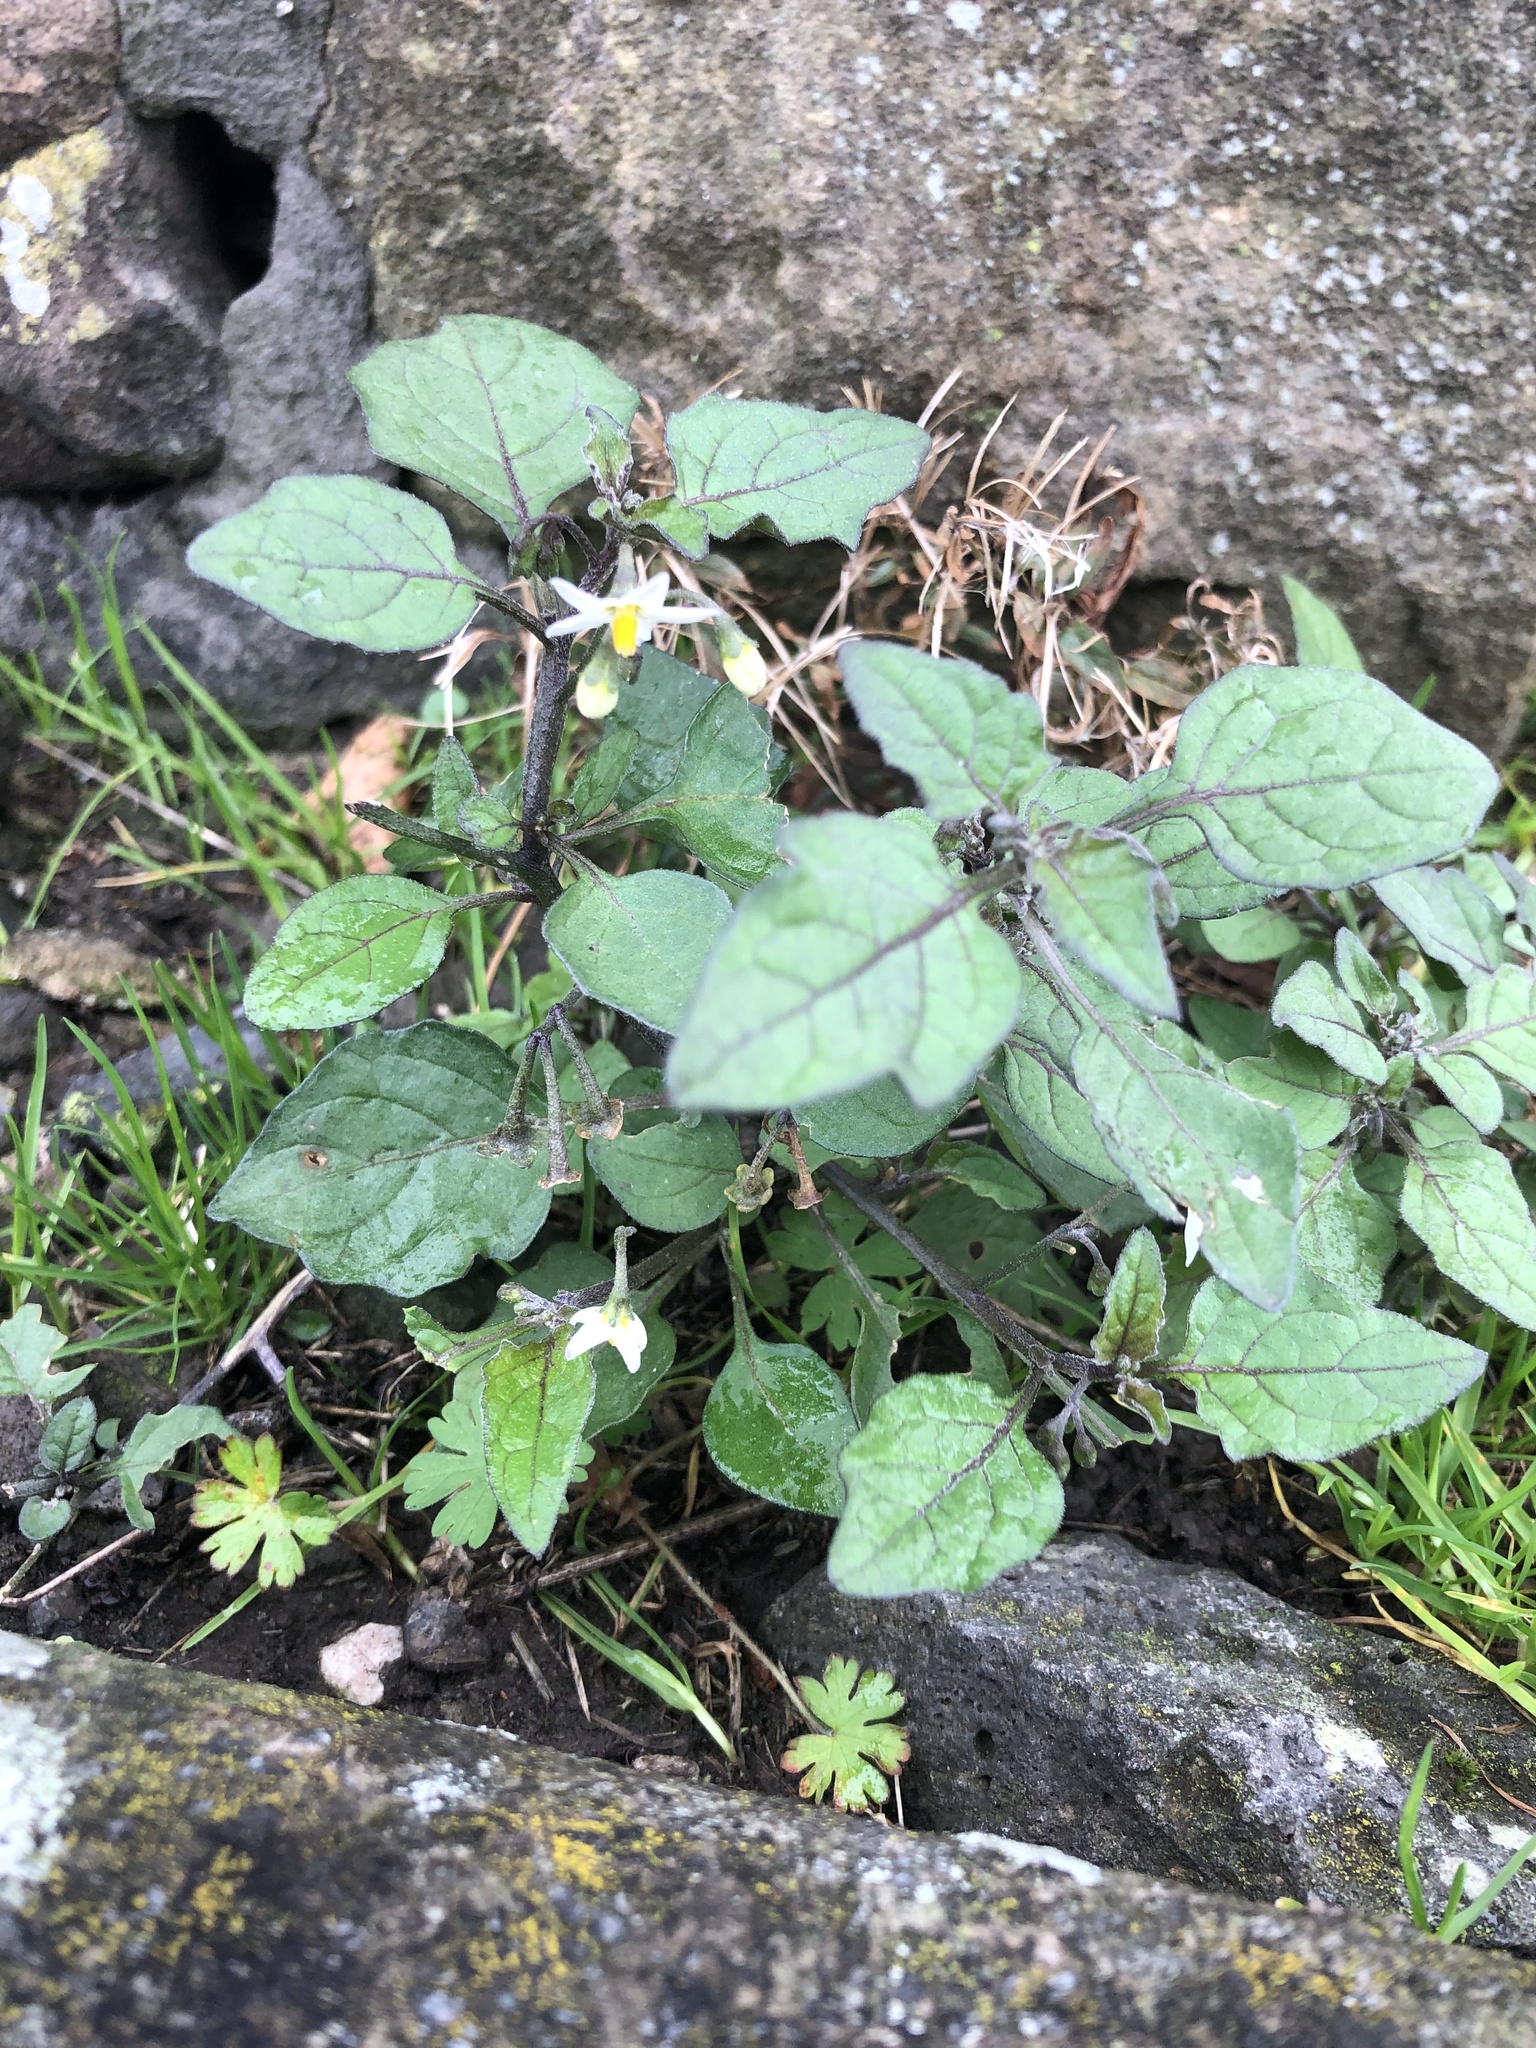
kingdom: Plantae
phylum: Tracheophyta
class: Magnoliopsida
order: Solanales
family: Solanaceae
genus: Solanum
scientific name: Solanum nigrum
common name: Black nightshade
